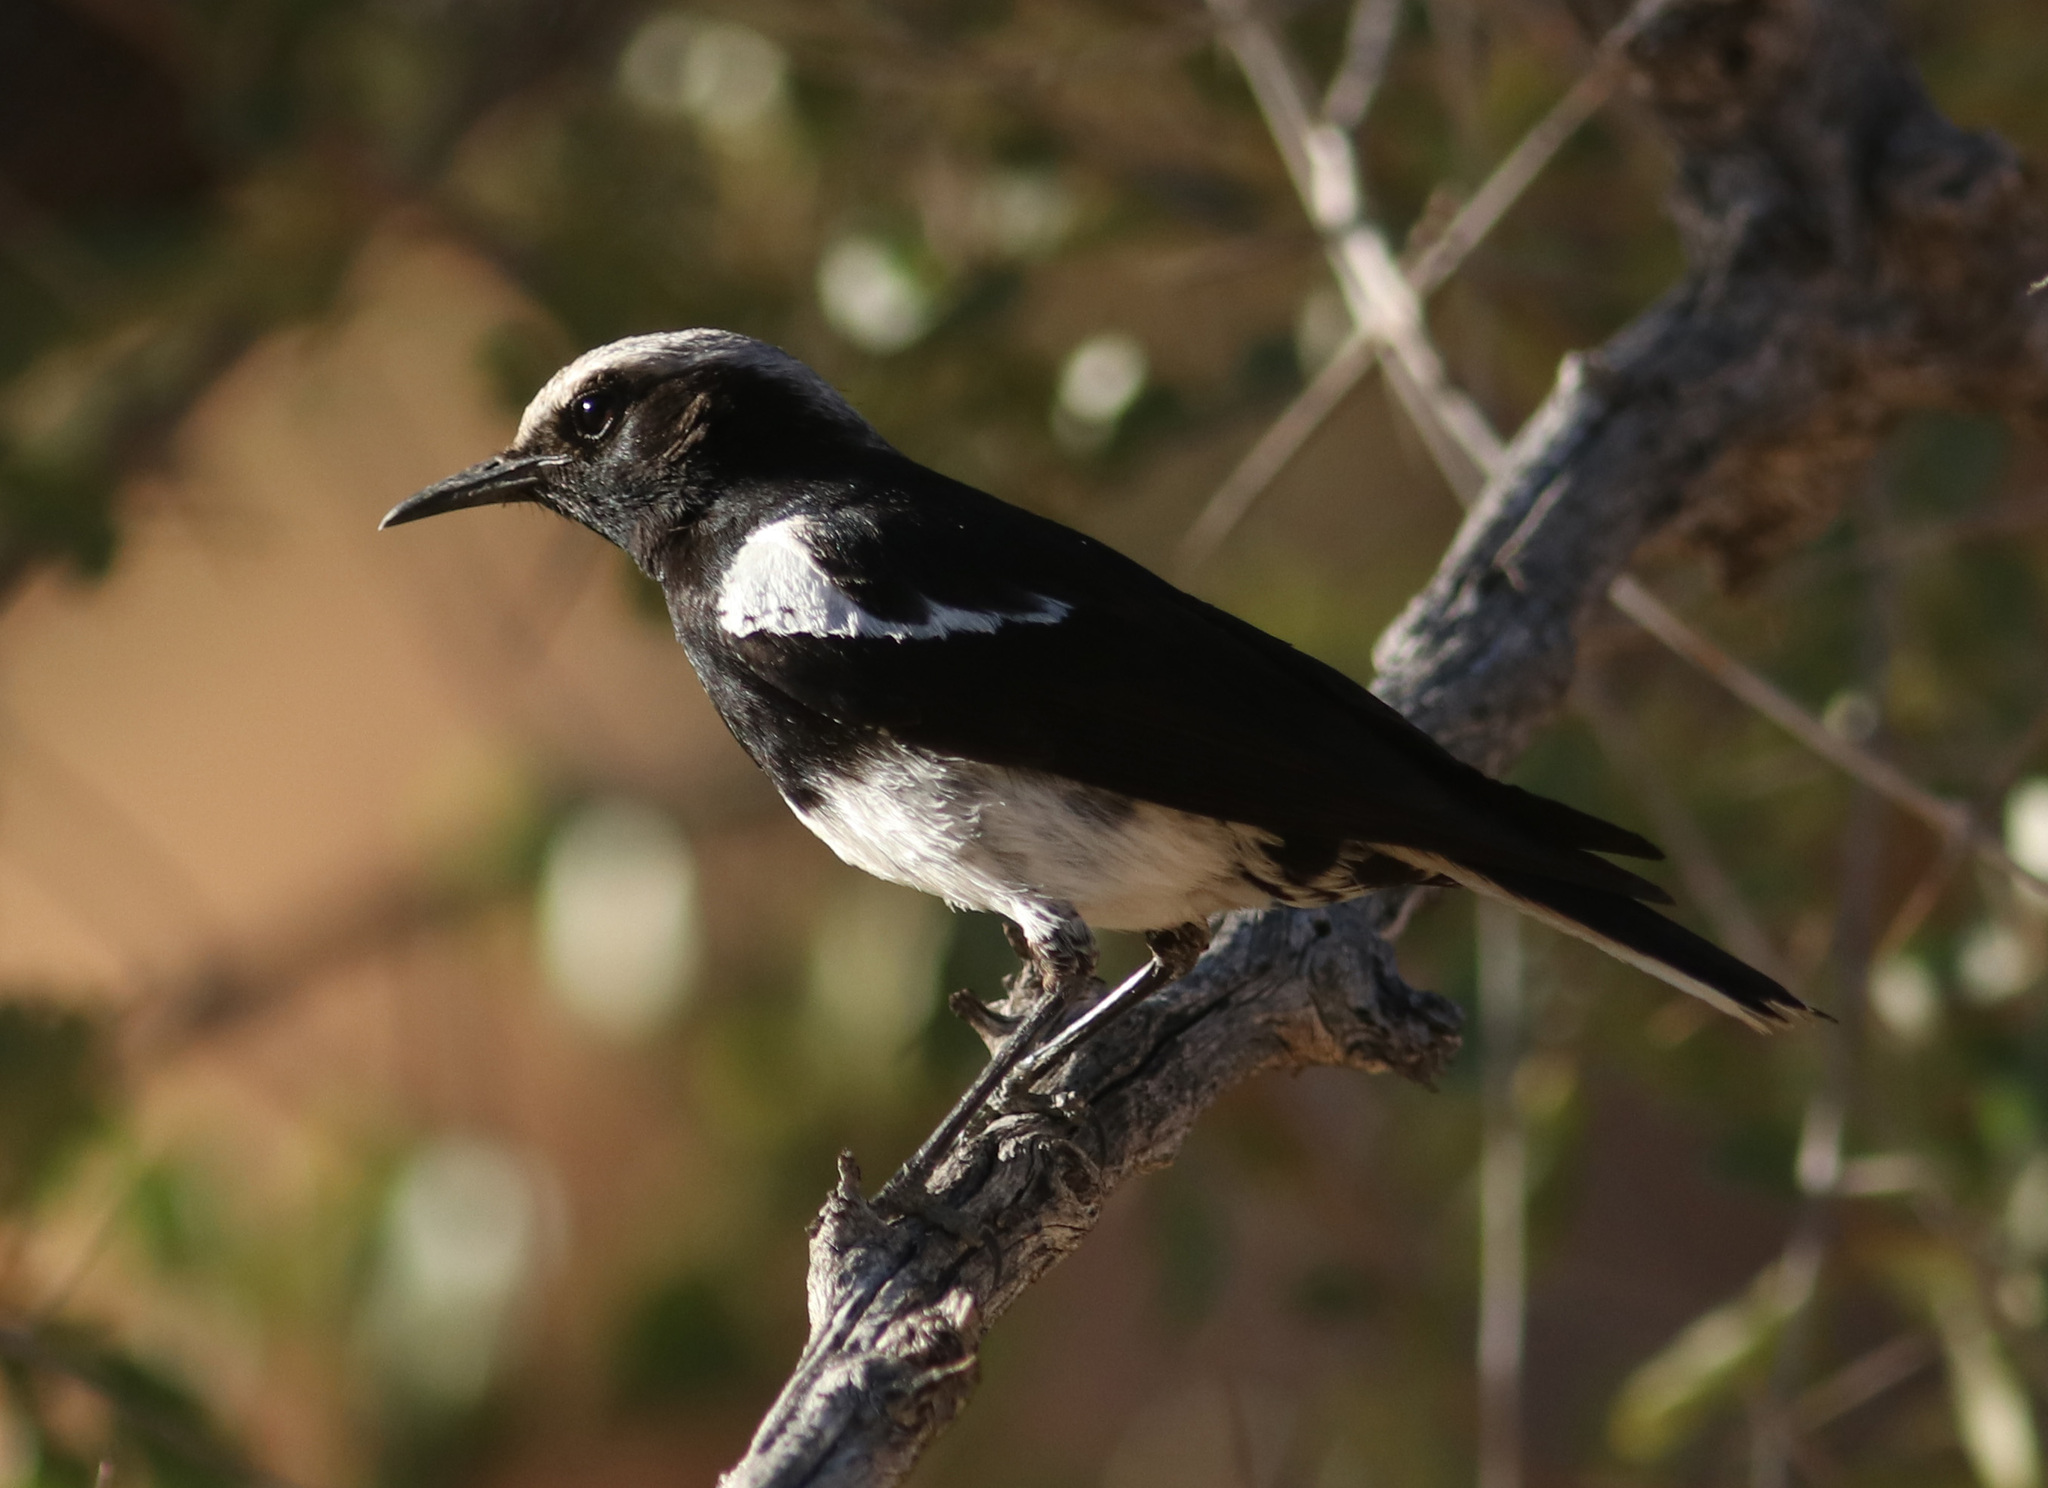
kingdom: Animalia
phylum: Chordata
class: Aves
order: Passeriformes
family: Muscicapidae
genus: Oenanthe
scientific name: Oenanthe monticola
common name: Mountain wheatear
